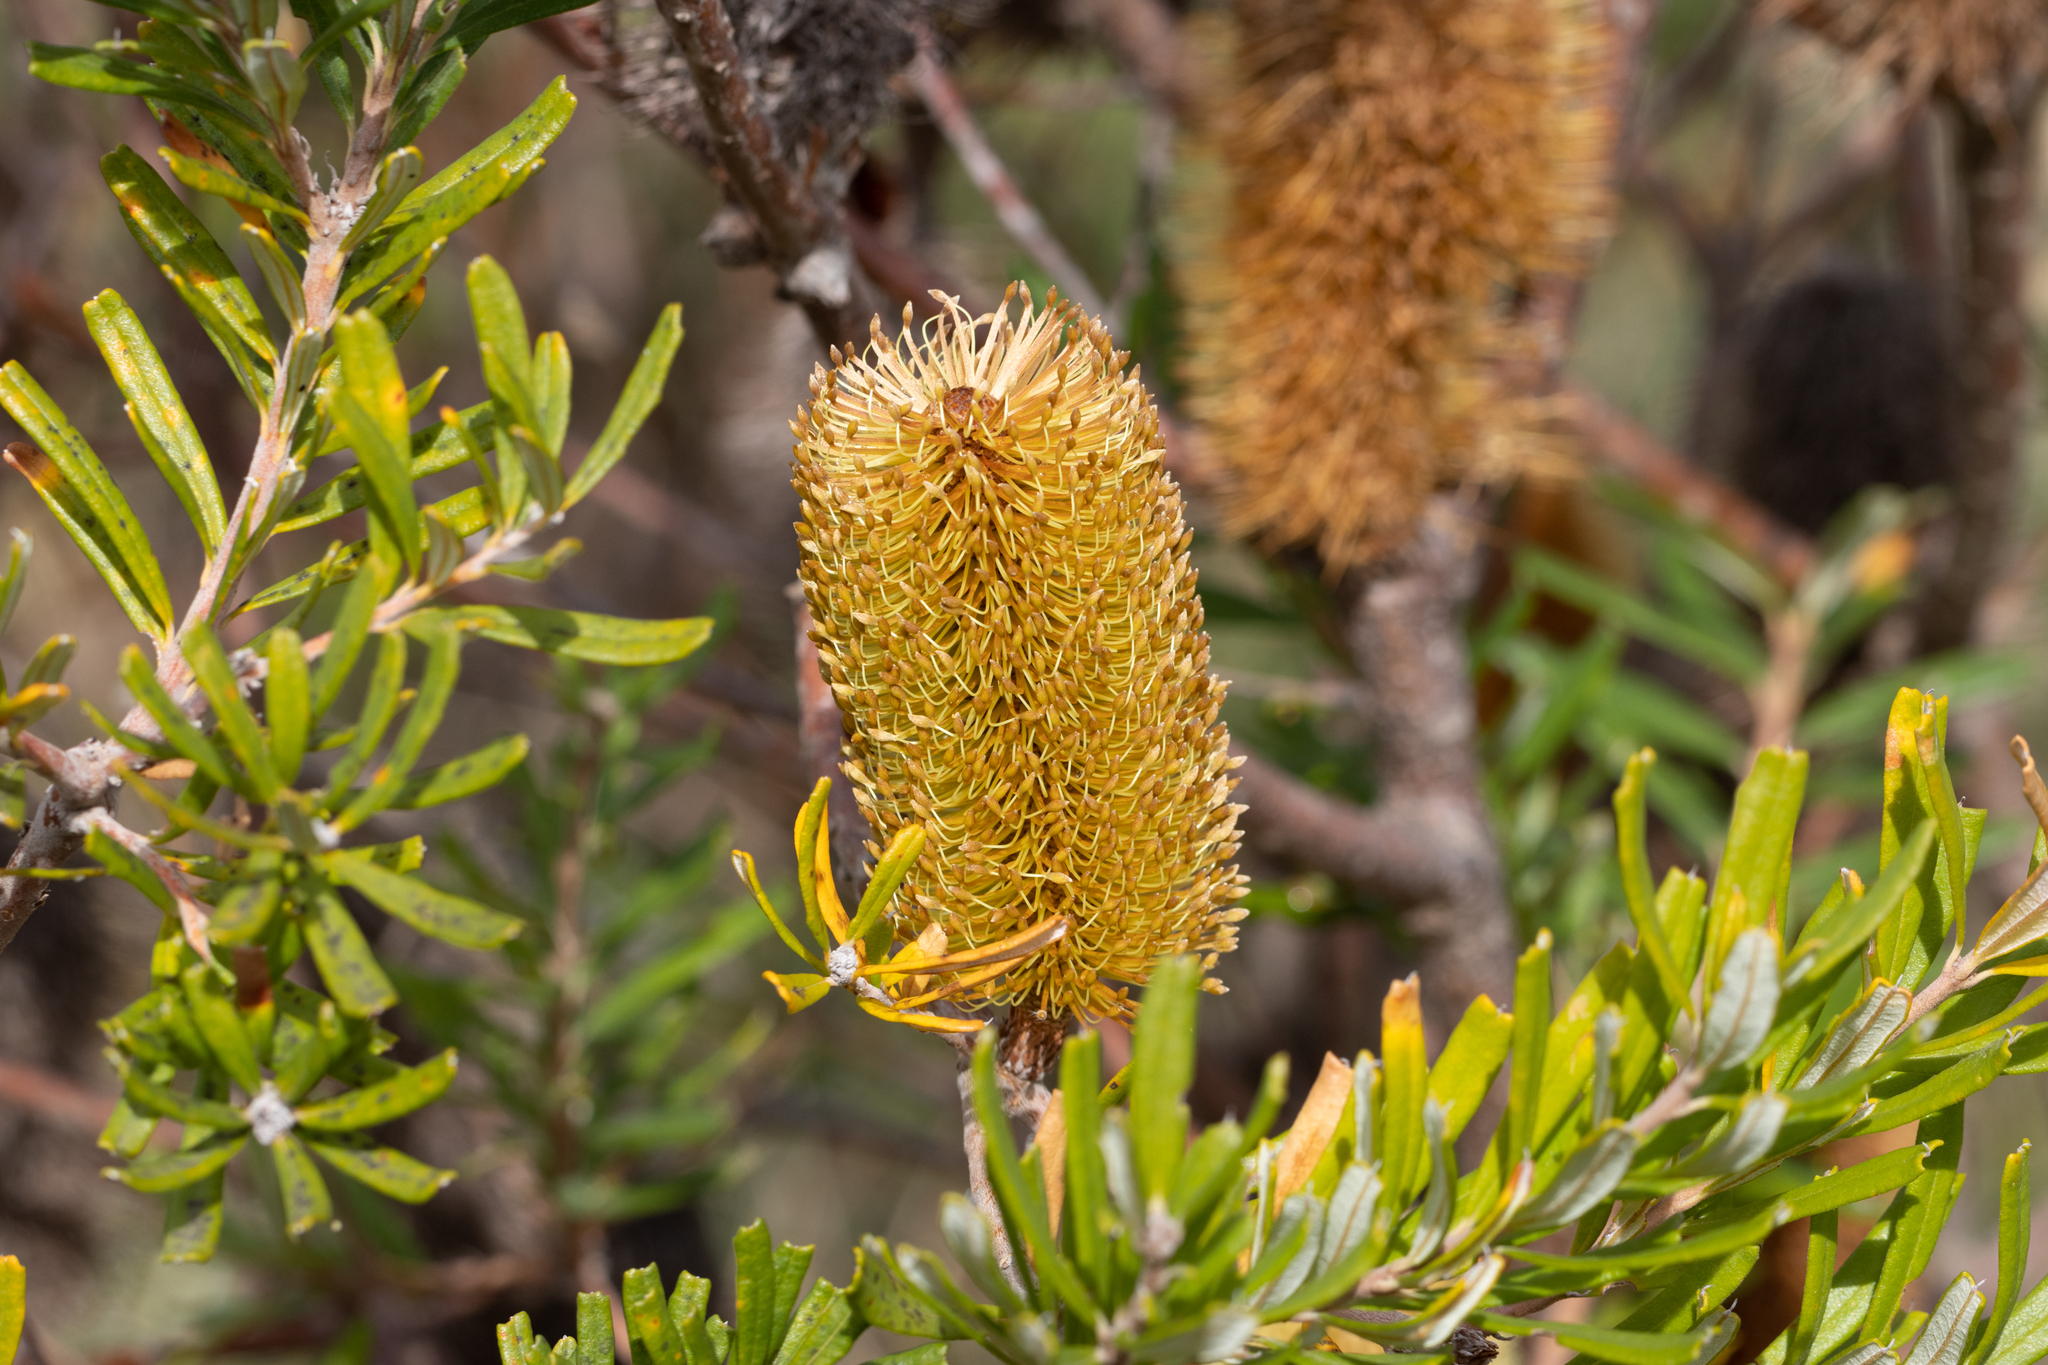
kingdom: Plantae
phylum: Tracheophyta
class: Magnoliopsida
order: Proteales
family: Proteaceae
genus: Banksia
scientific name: Banksia marginata
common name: Silver banksia
